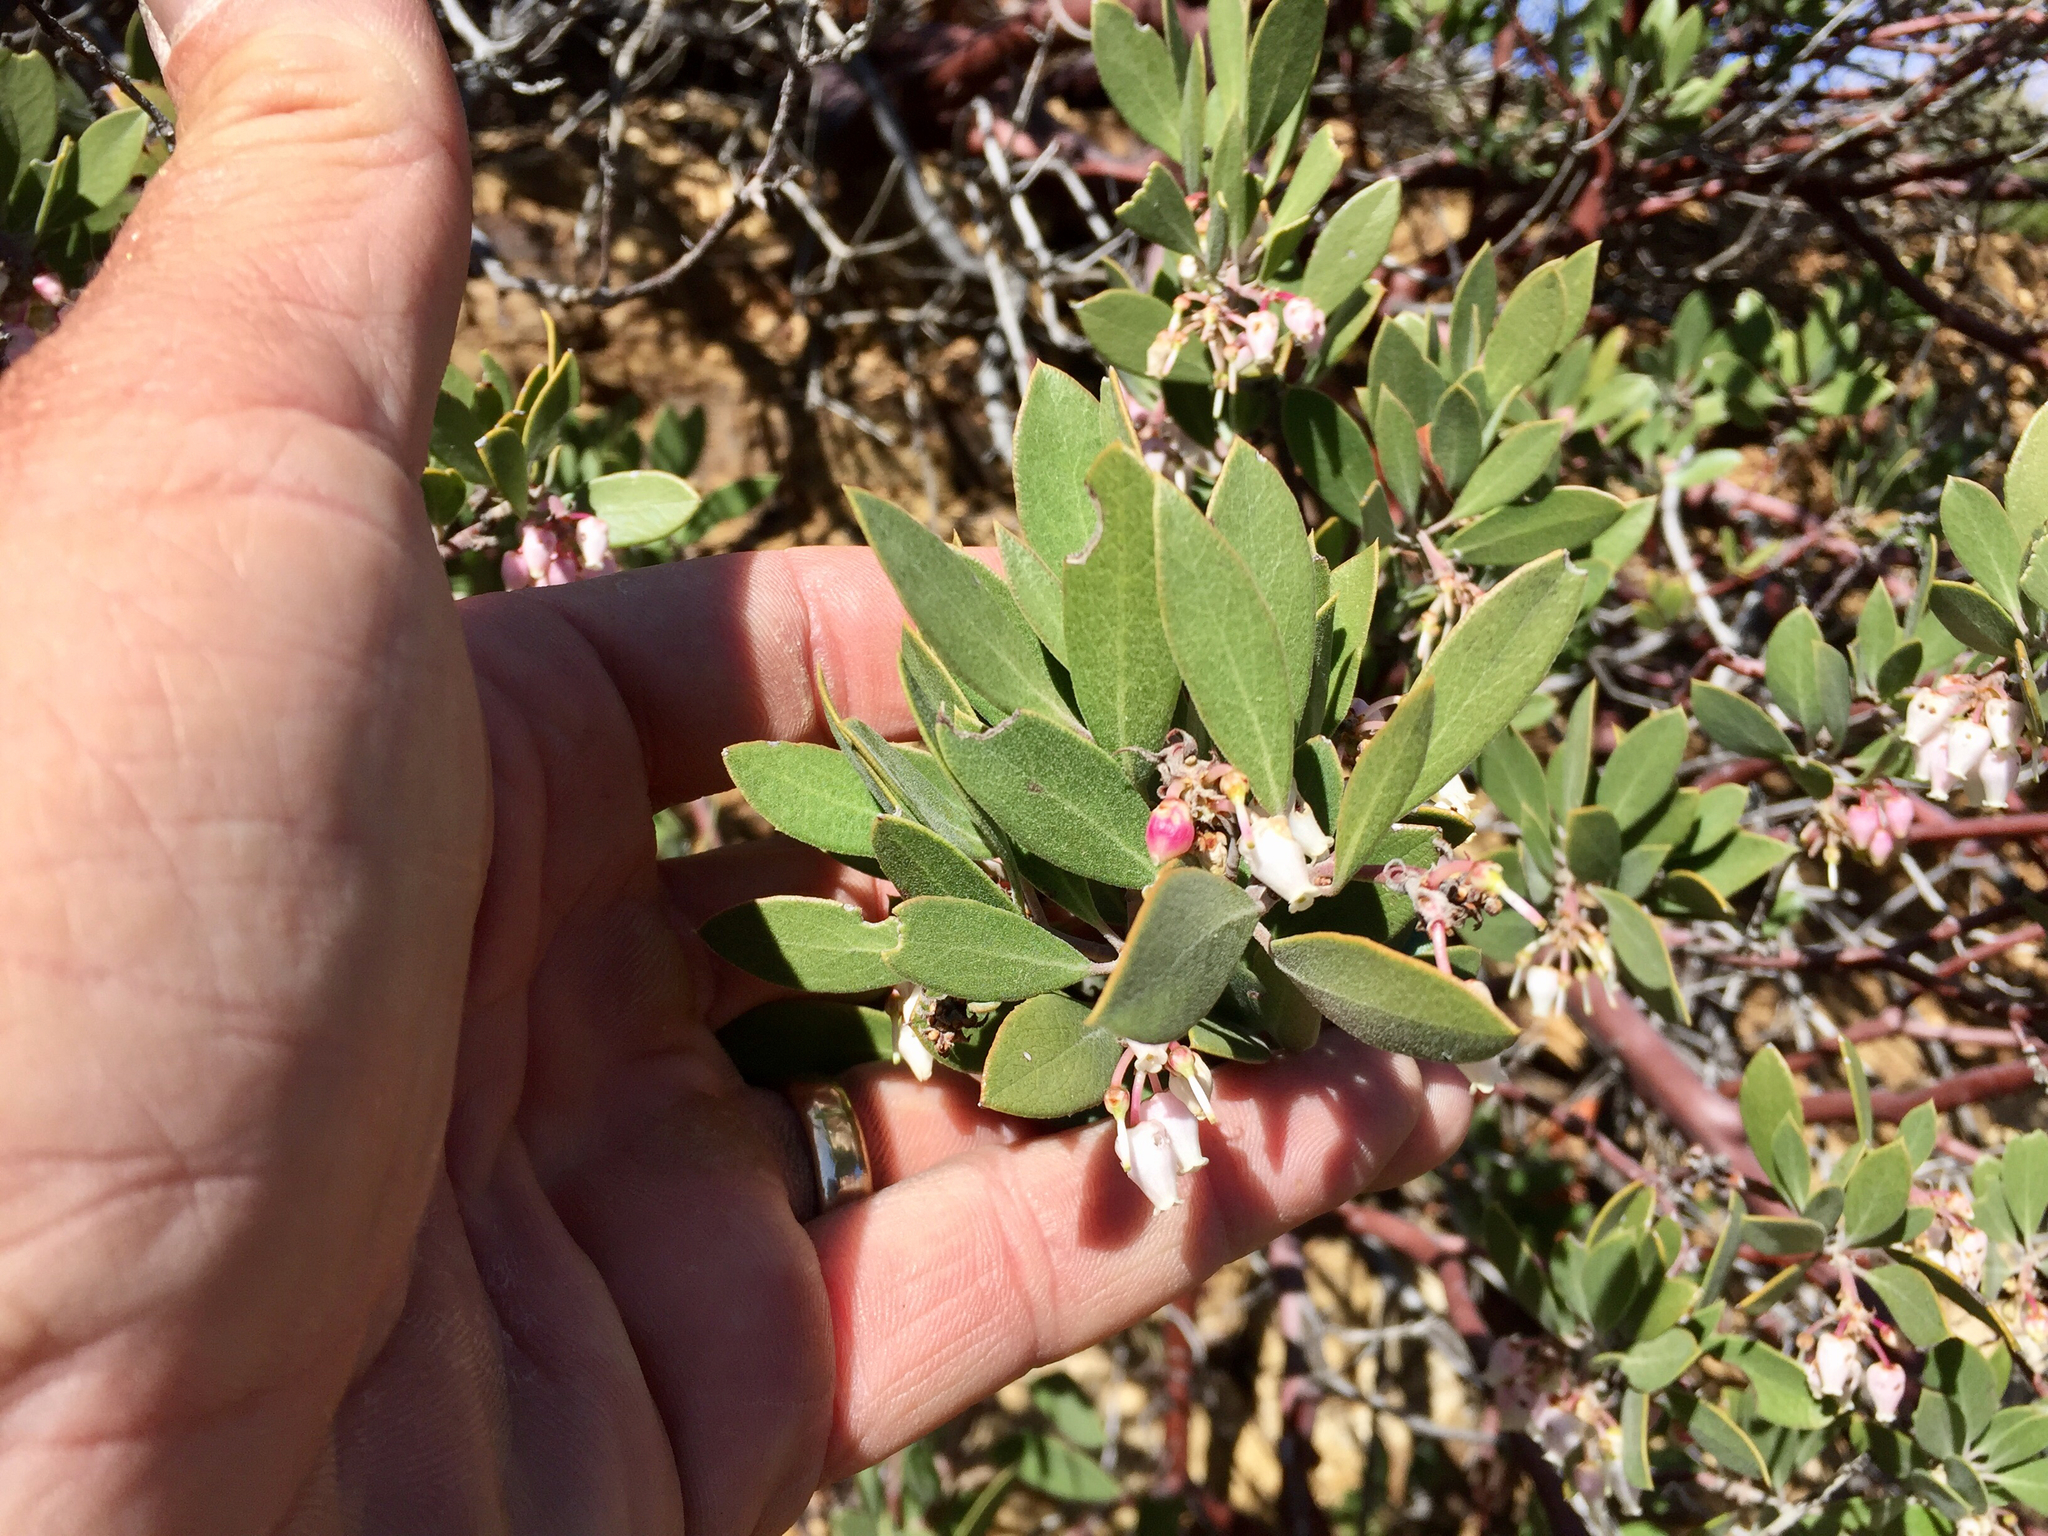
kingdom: Plantae
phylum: Tracheophyta
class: Magnoliopsida
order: Ericales
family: Ericaceae
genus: Arctostaphylos
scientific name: Arctostaphylos pungens
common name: Mexican manzanita
